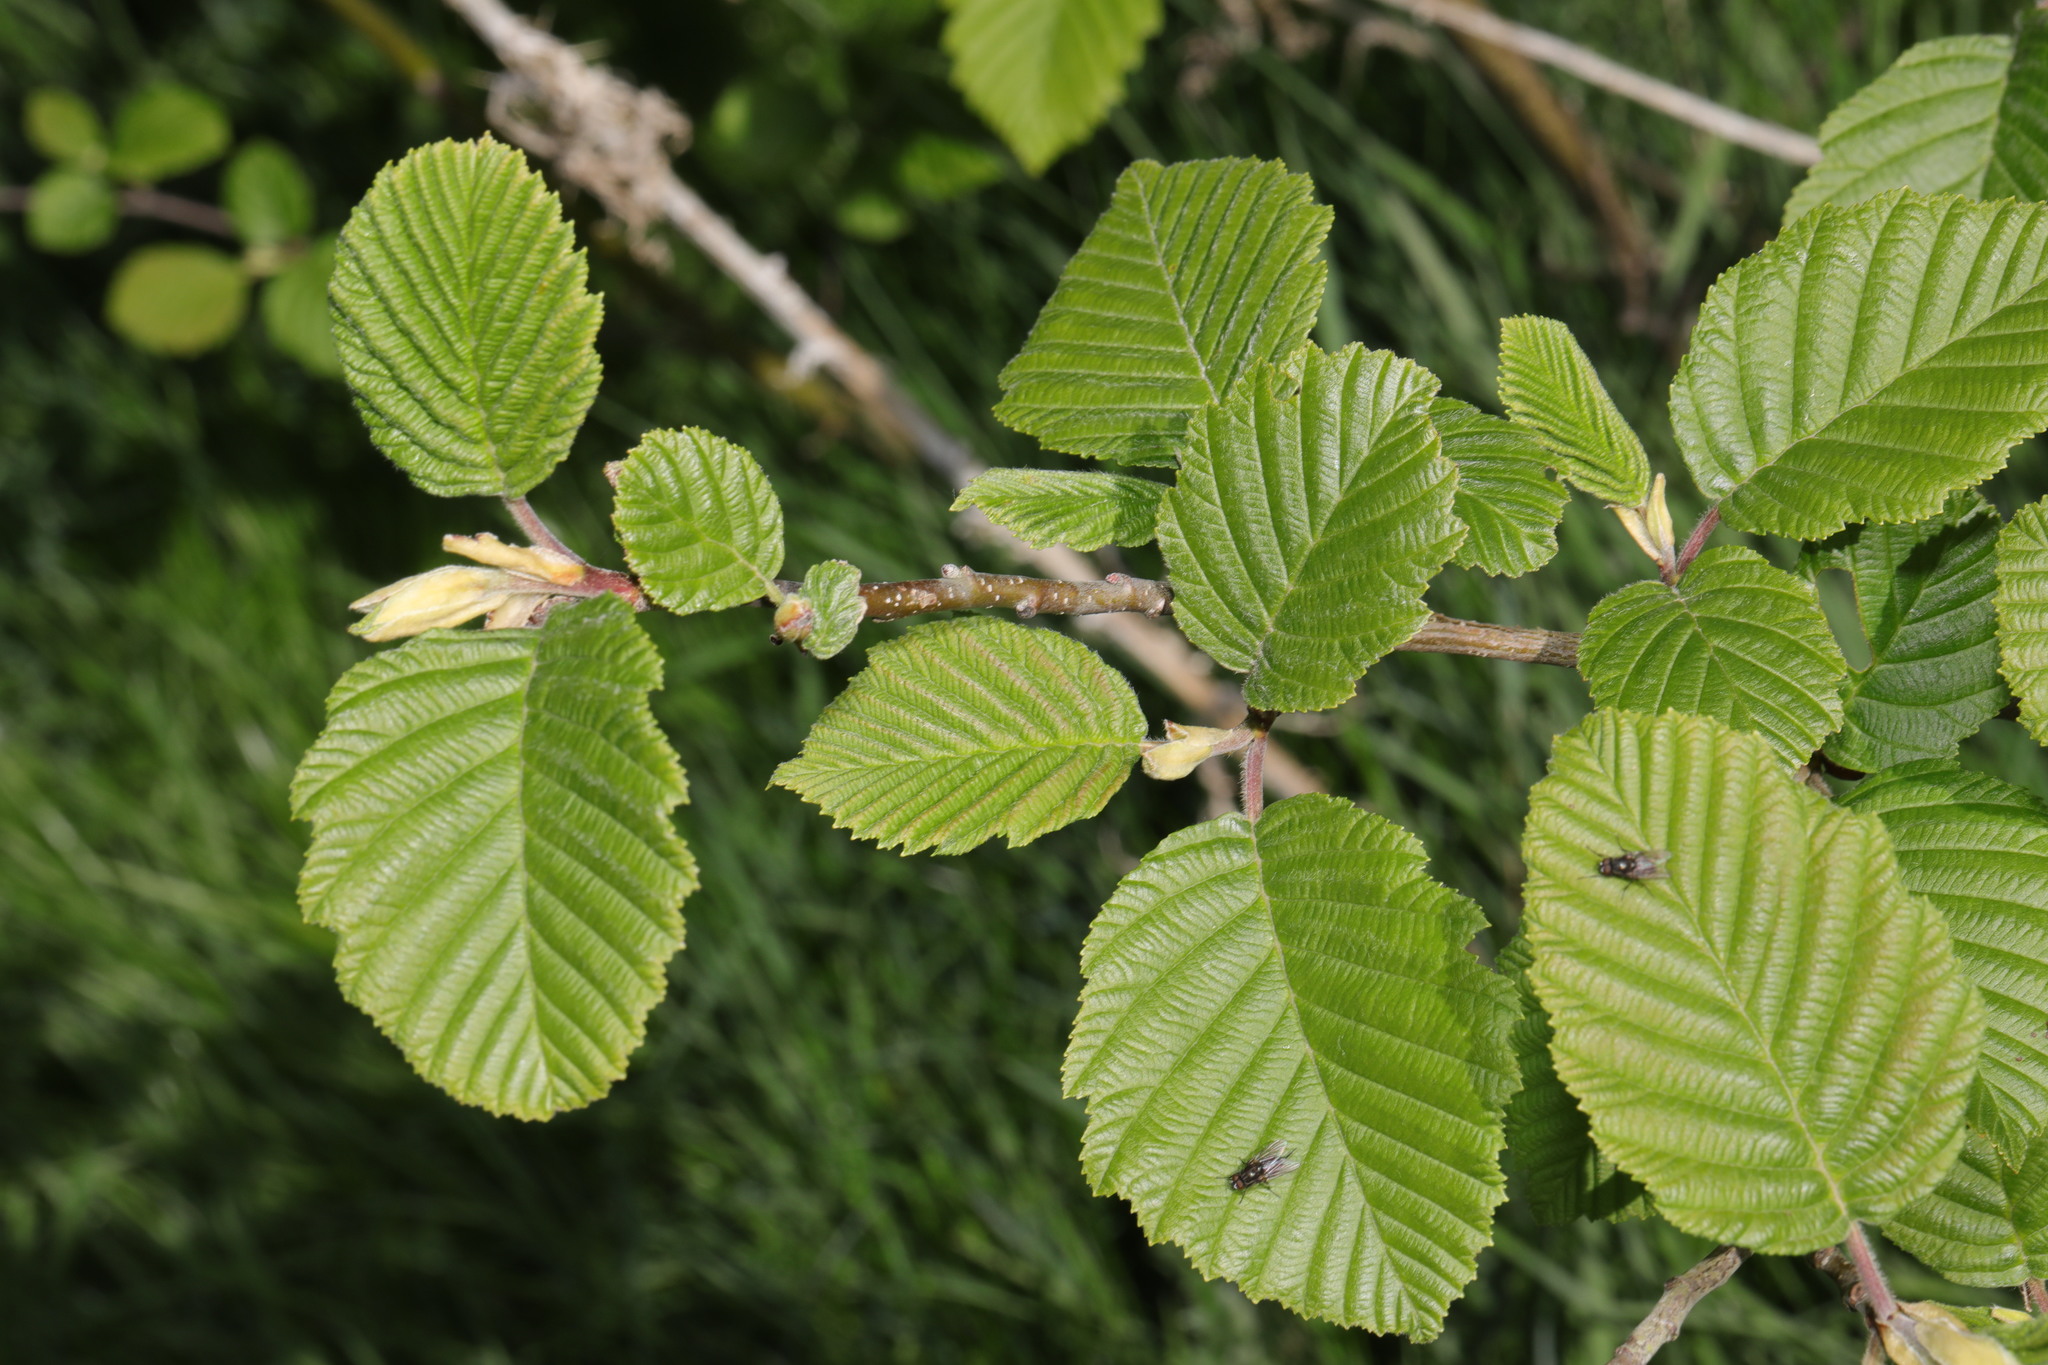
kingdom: Plantae
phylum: Tracheophyta
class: Magnoliopsida
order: Fagales
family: Betulaceae
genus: Alnus
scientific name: Alnus incana
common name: Grey alder
